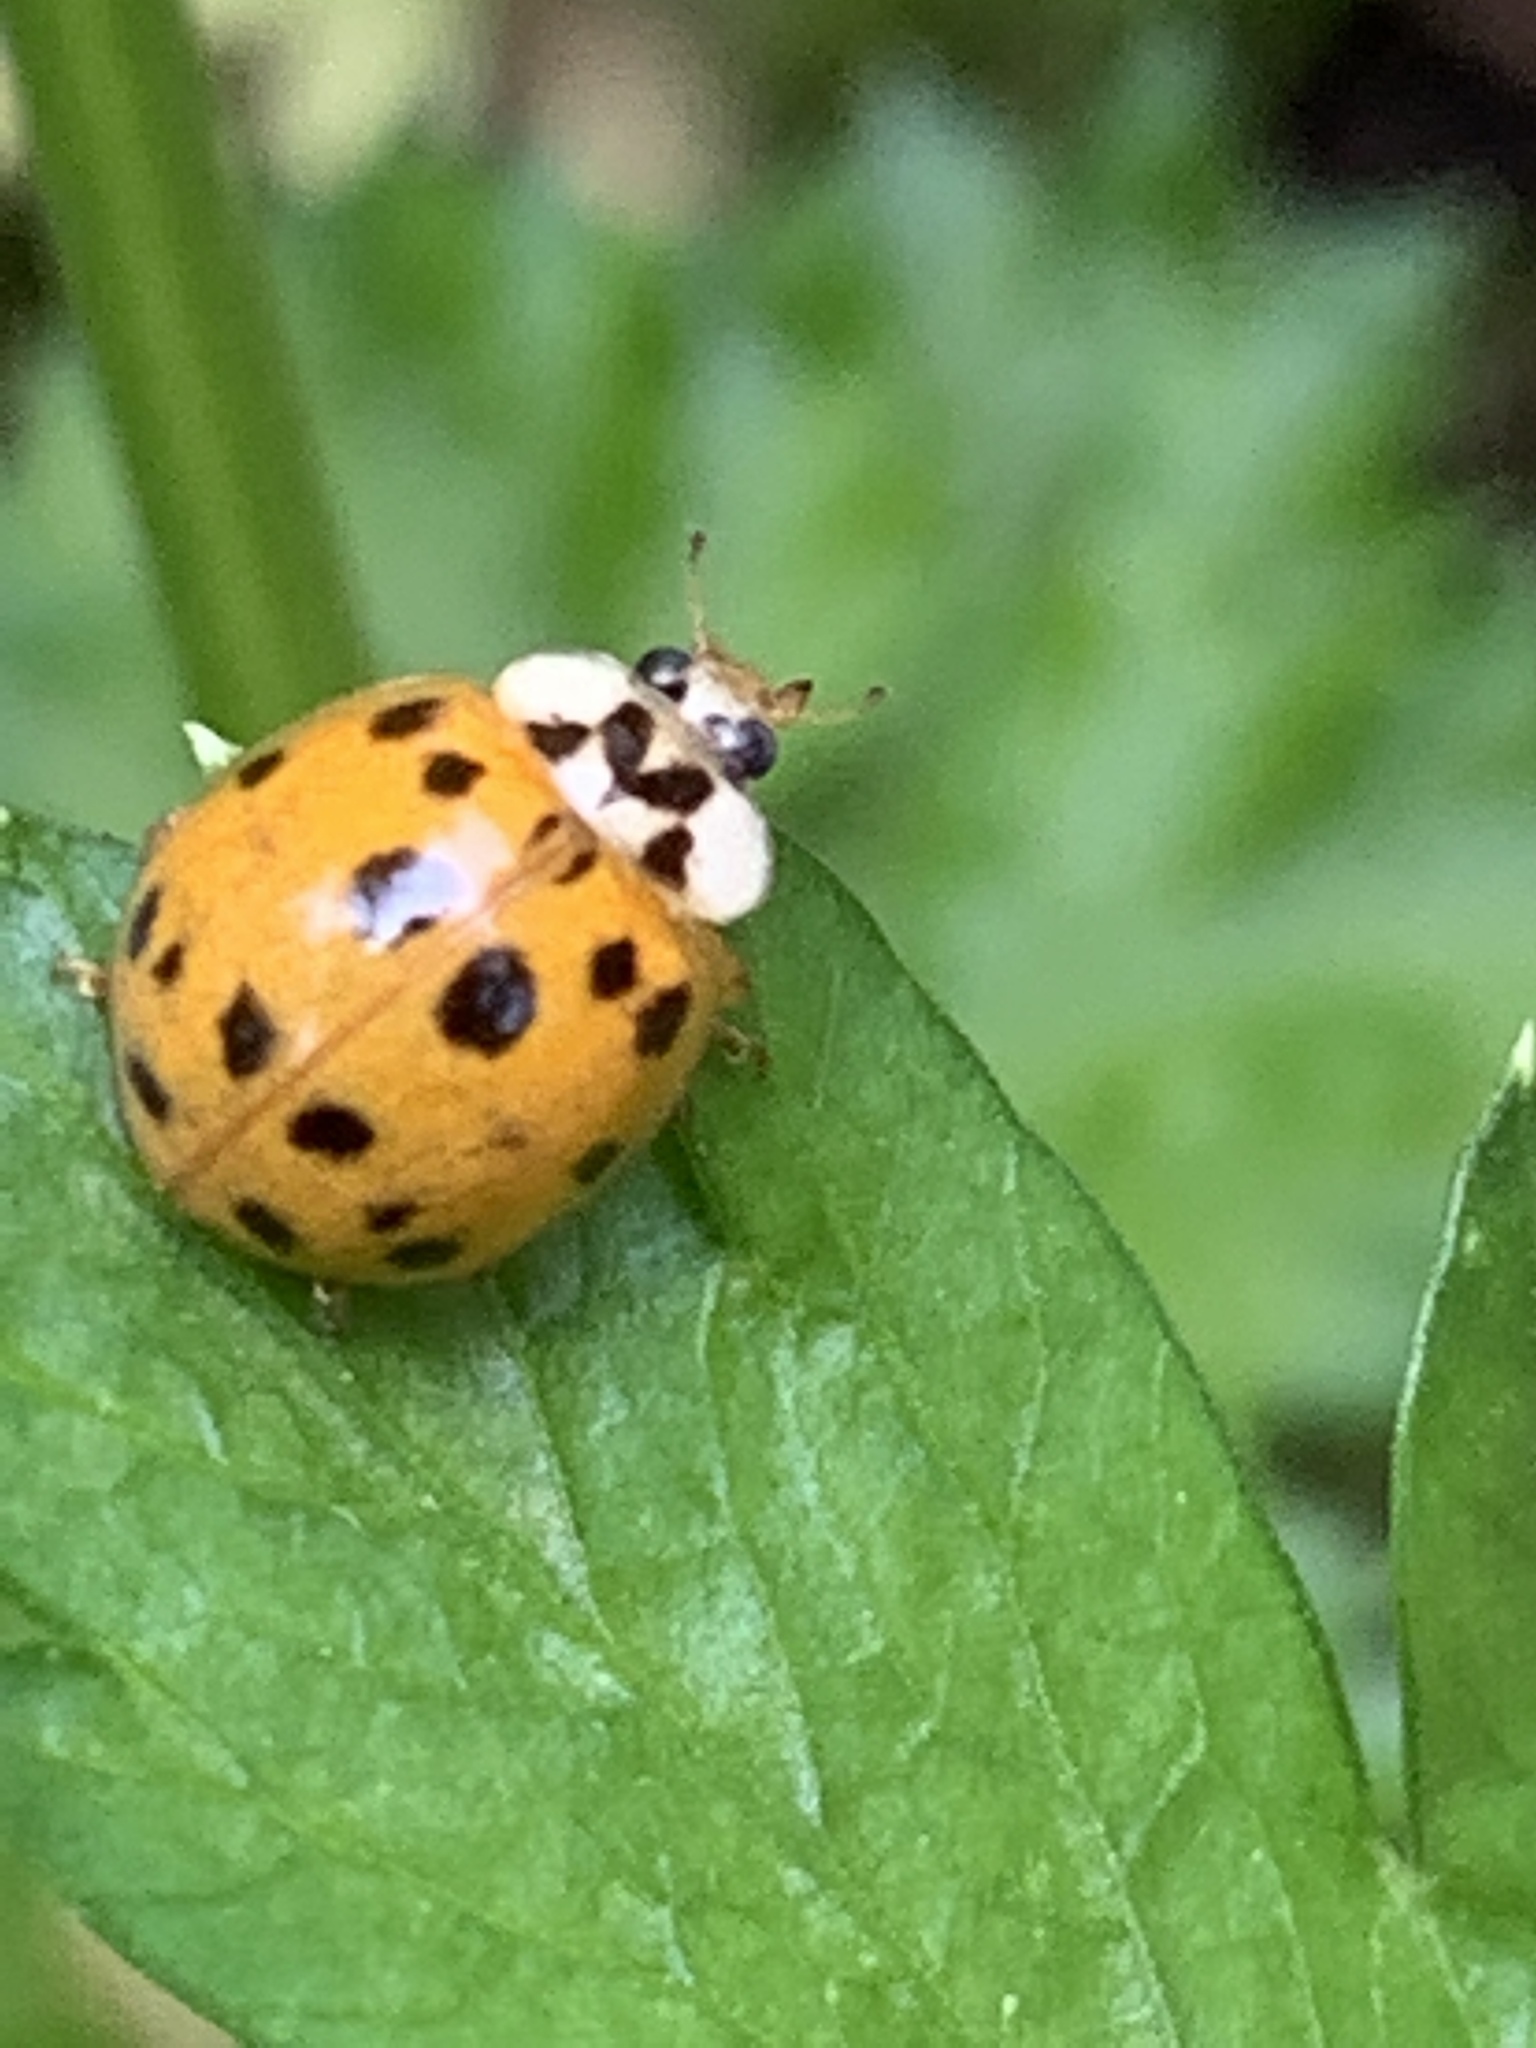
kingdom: Animalia
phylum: Arthropoda
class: Insecta
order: Coleoptera
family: Coccinellidae
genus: Harmonia
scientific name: Harmonia axyridis
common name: Harlequin ladybird
